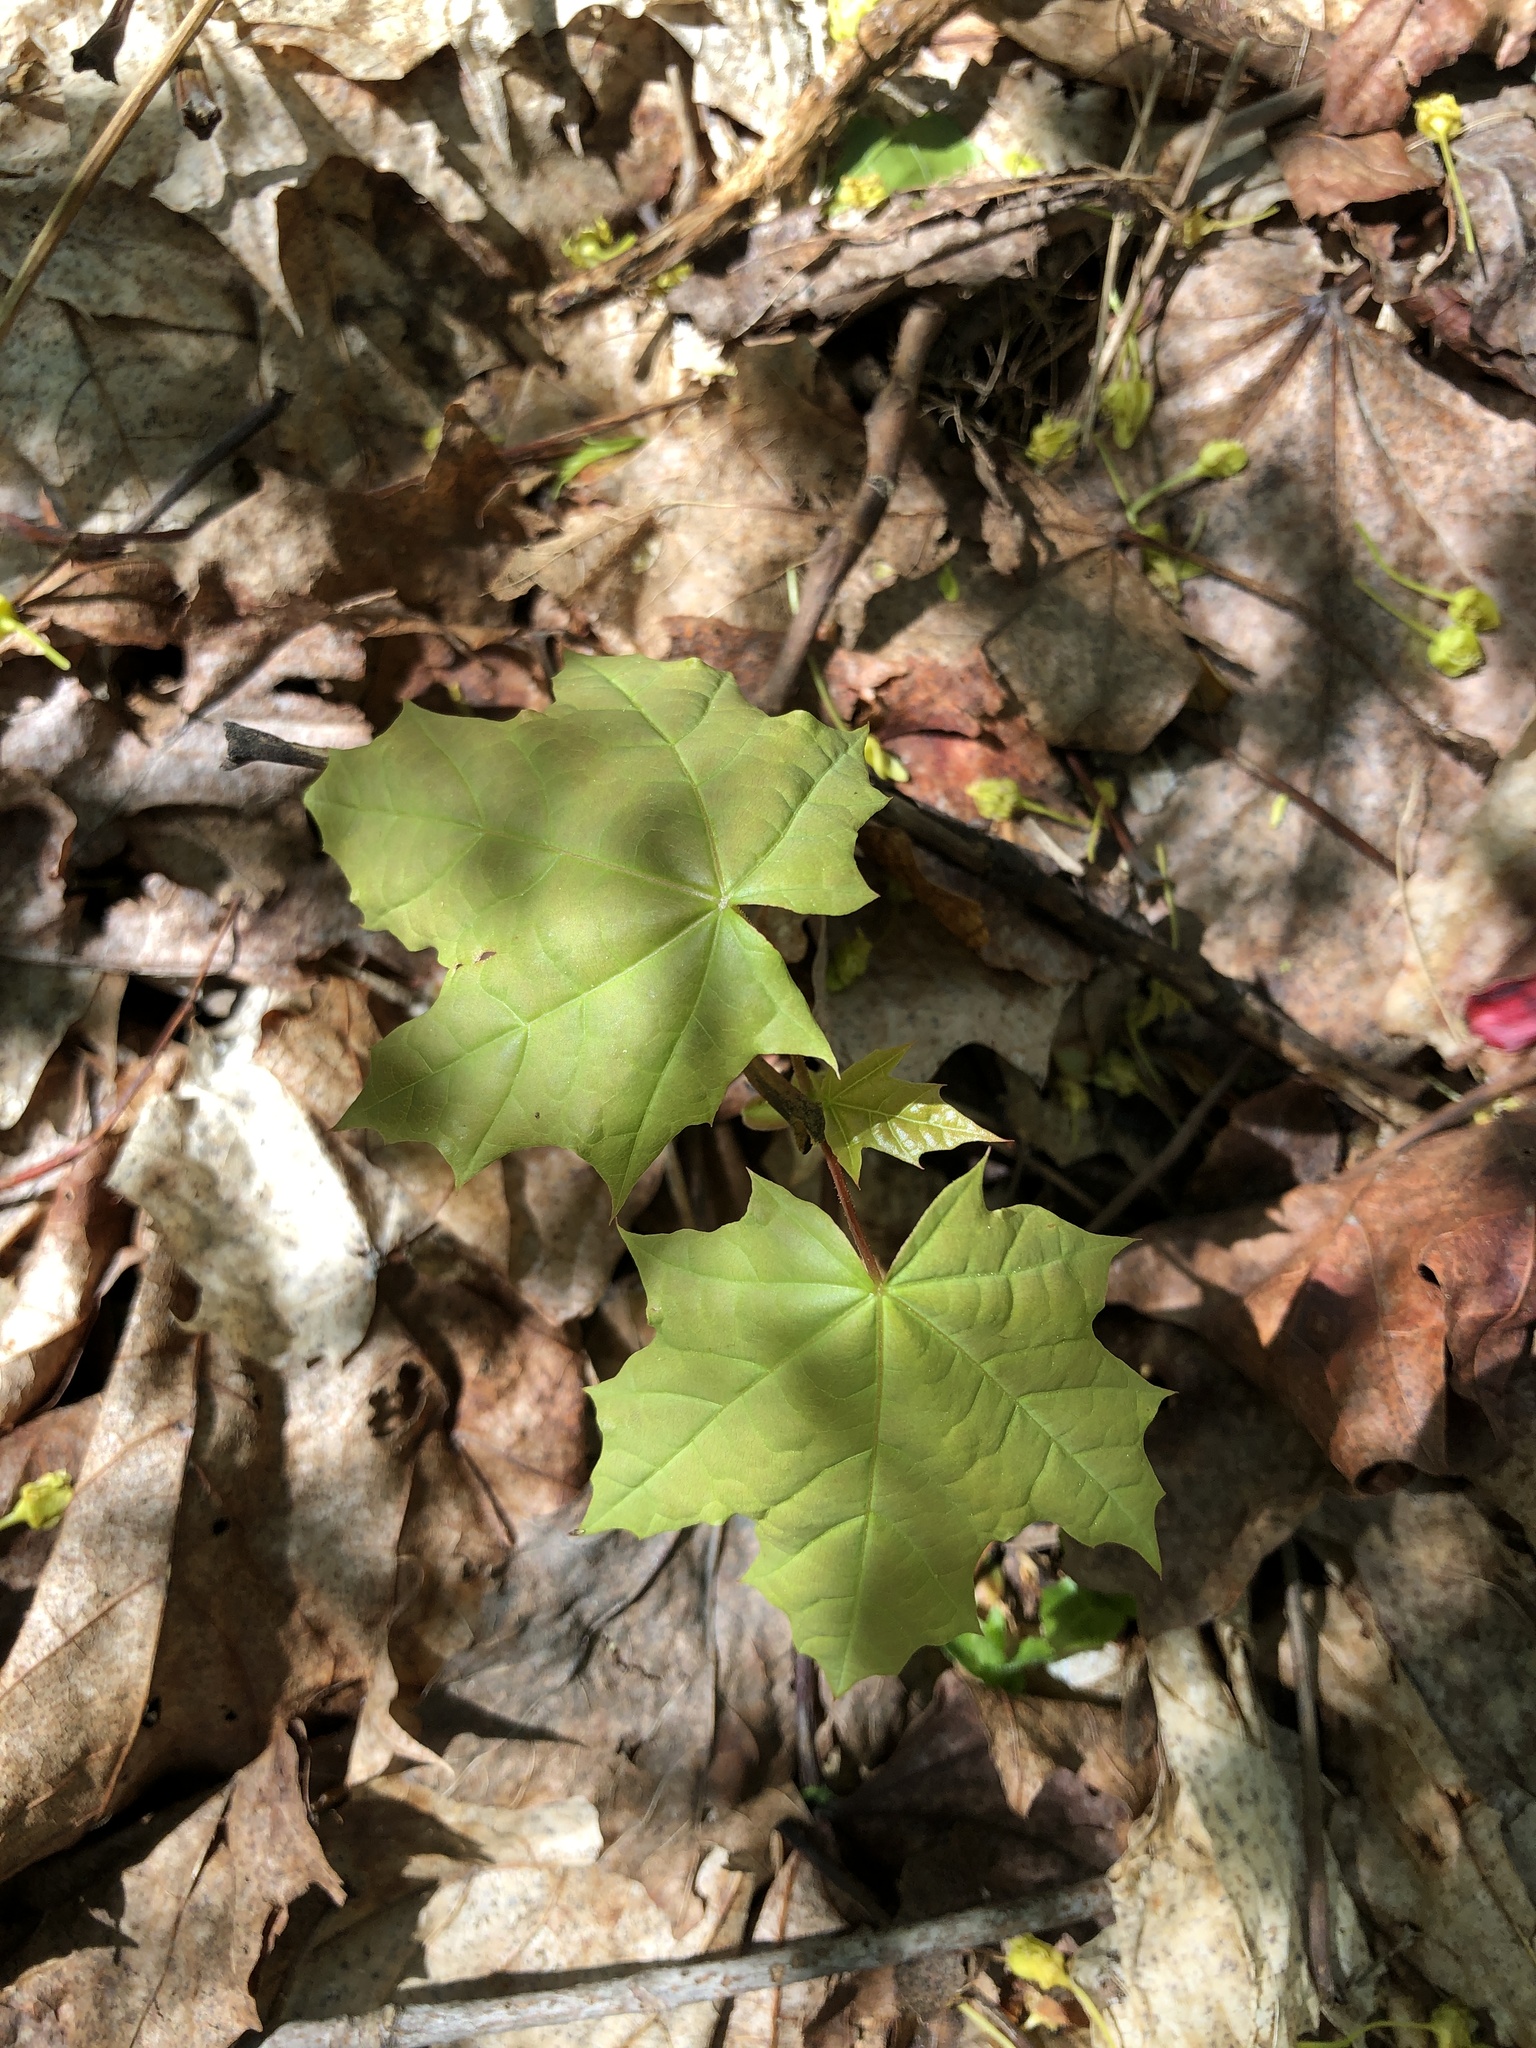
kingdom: Plantae
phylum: Tracheophyta
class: Magnoliopsida
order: Sapindales
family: Sapindaceae
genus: Acer
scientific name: Acer platanoides
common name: Norway maple
